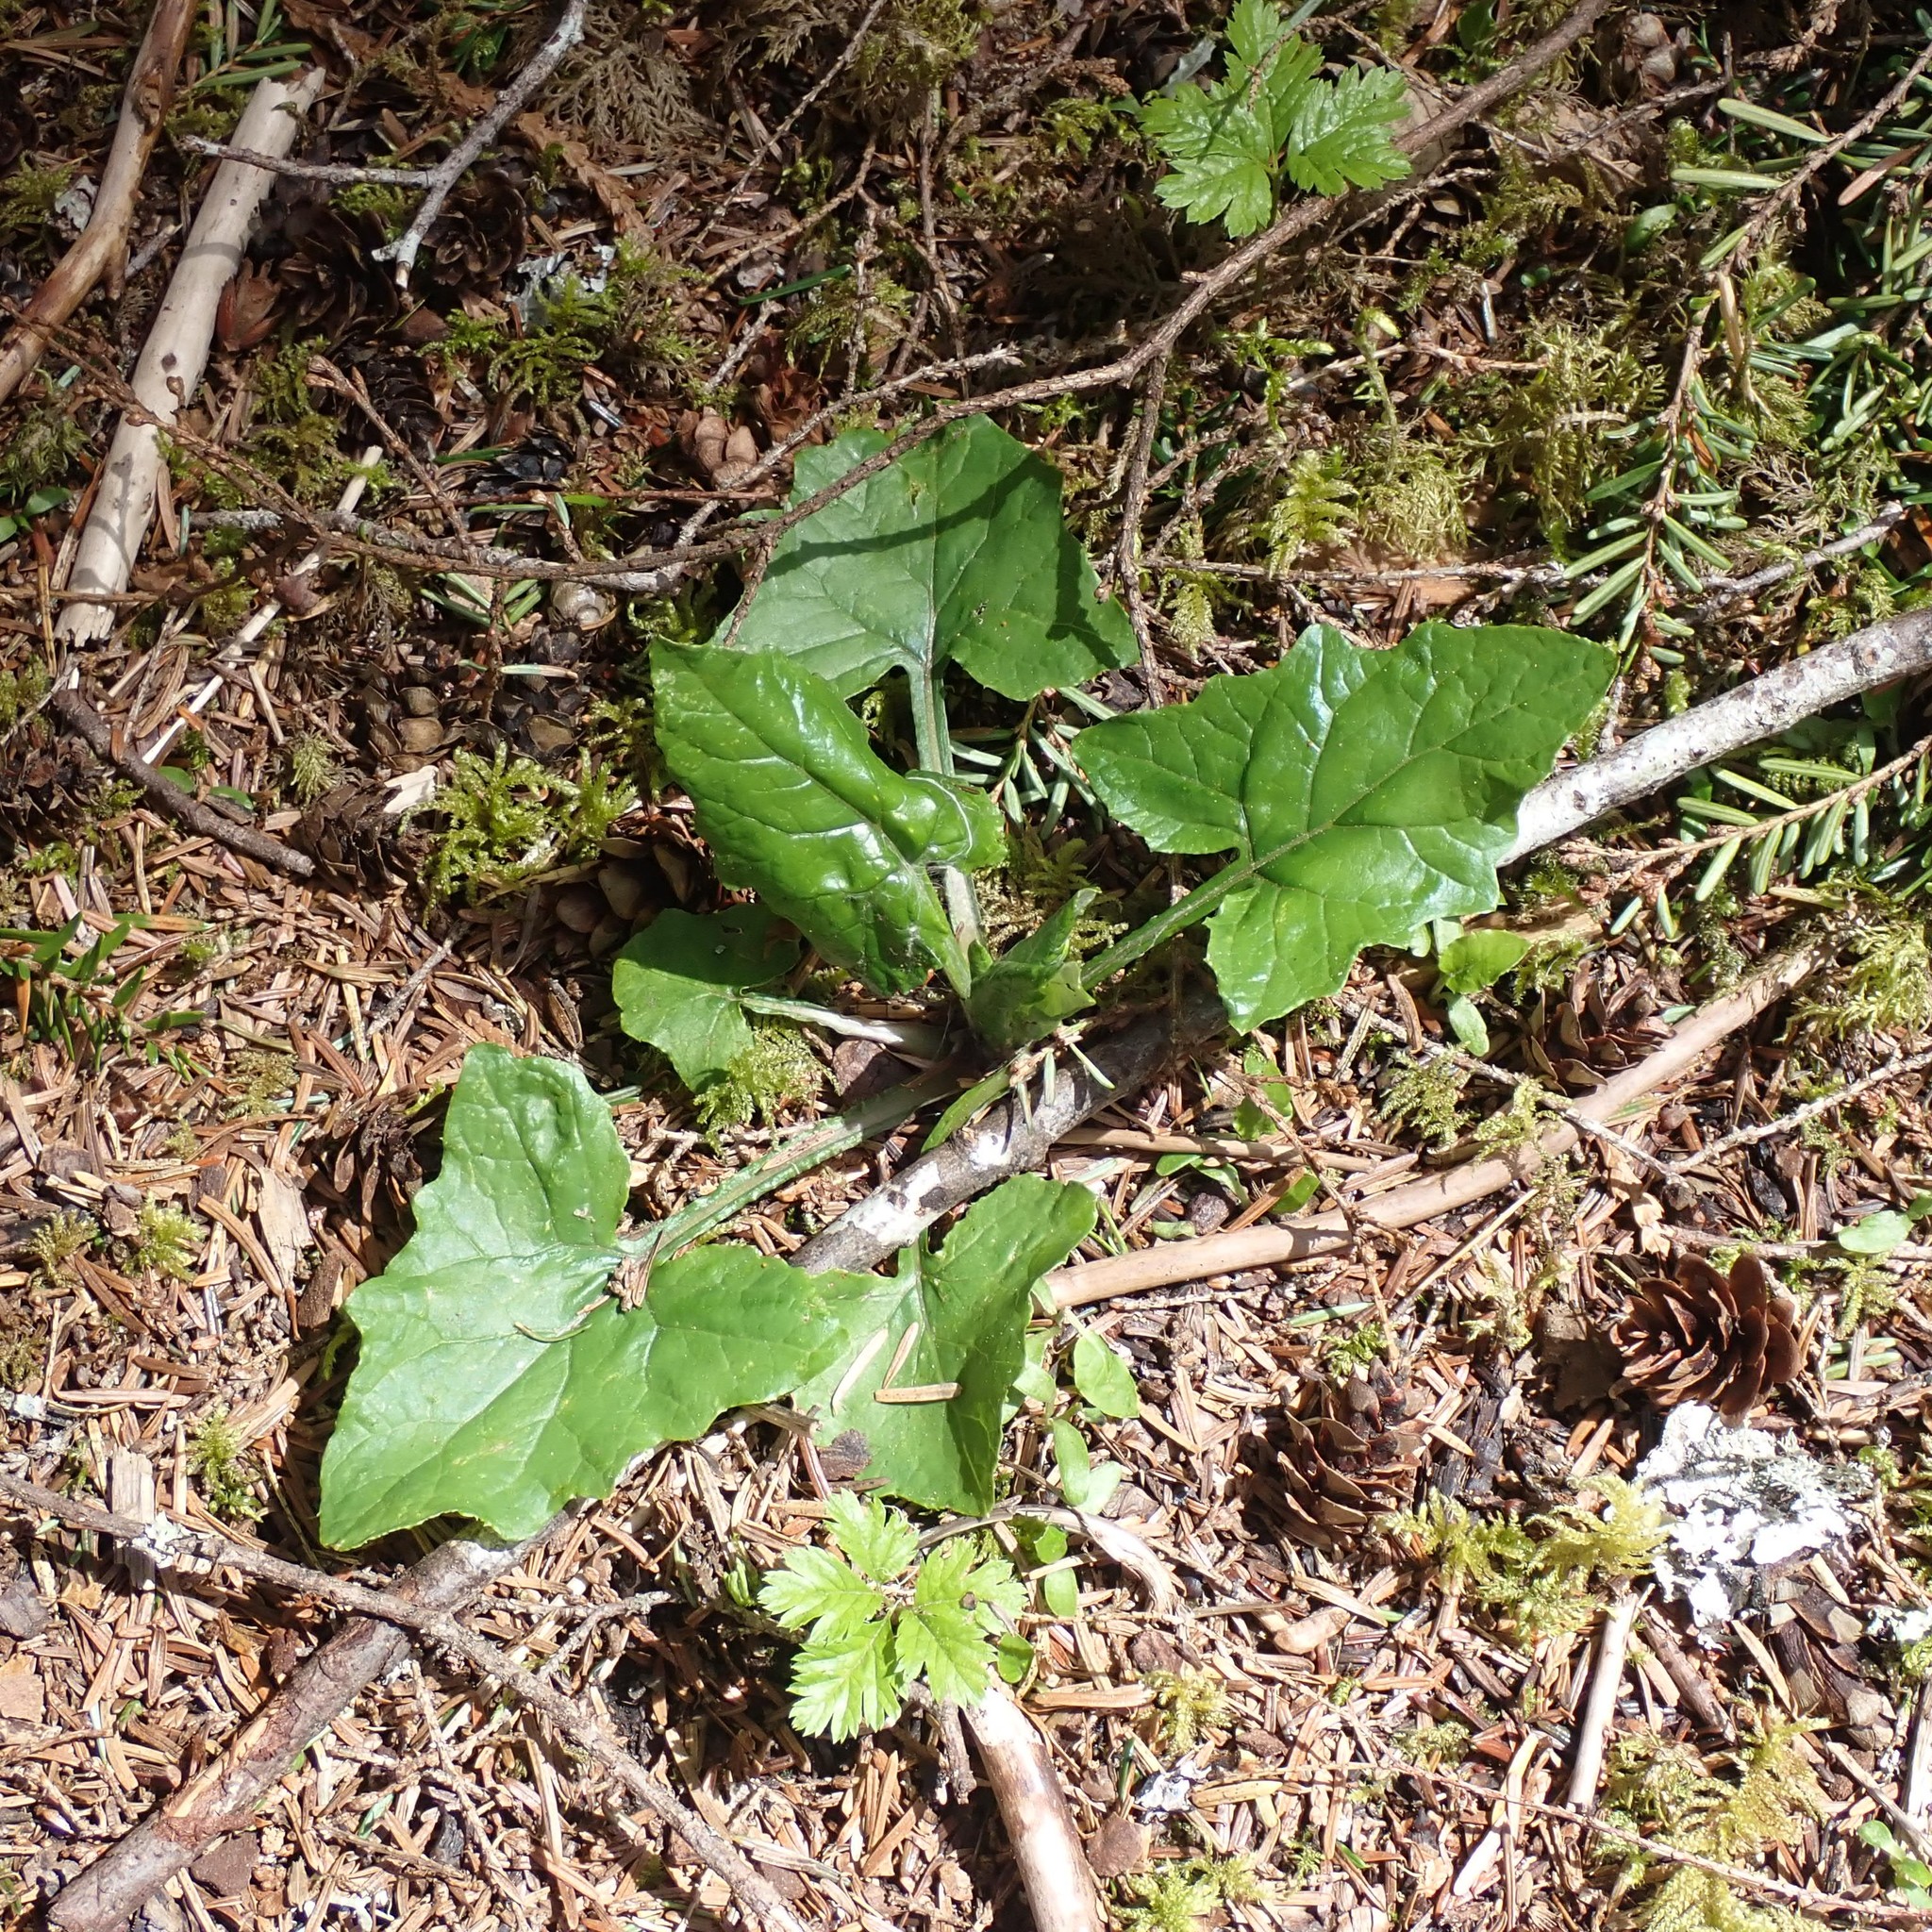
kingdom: Plantae
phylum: Tracheophyta
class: Magnoliopsida
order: Asterales
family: Asteraceae
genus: Adenocaulon
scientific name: Adenocaulon bicolor
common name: Trailplant
